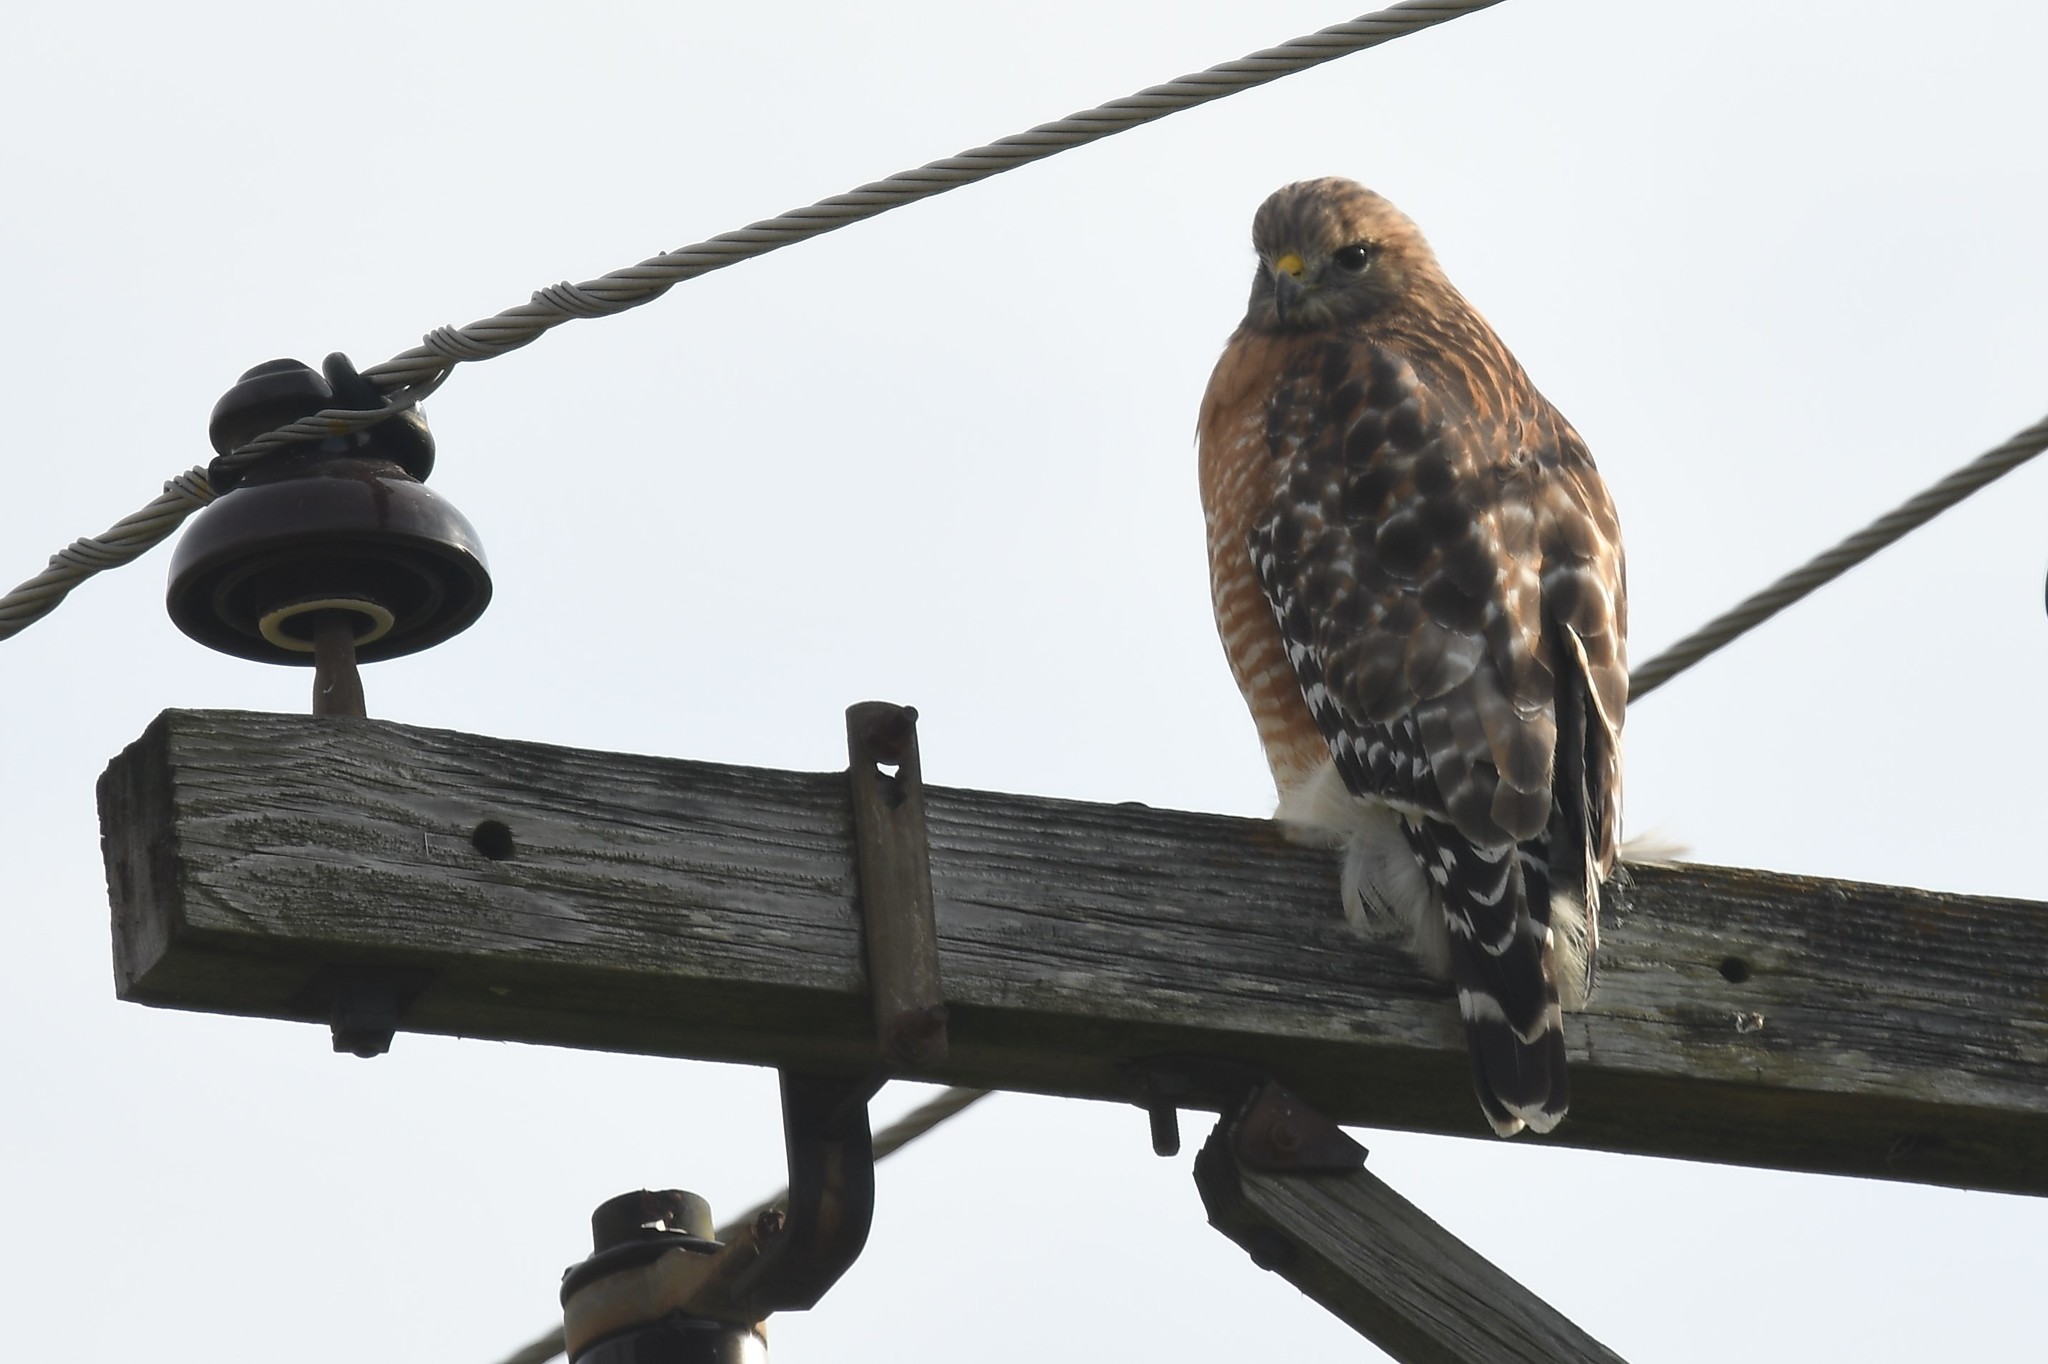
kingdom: Animalia
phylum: Chordata
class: Aves
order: Accipitriformes
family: Accipitridae
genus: Buteo
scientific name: Buteo lineatus
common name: Red-shouldered hawk
